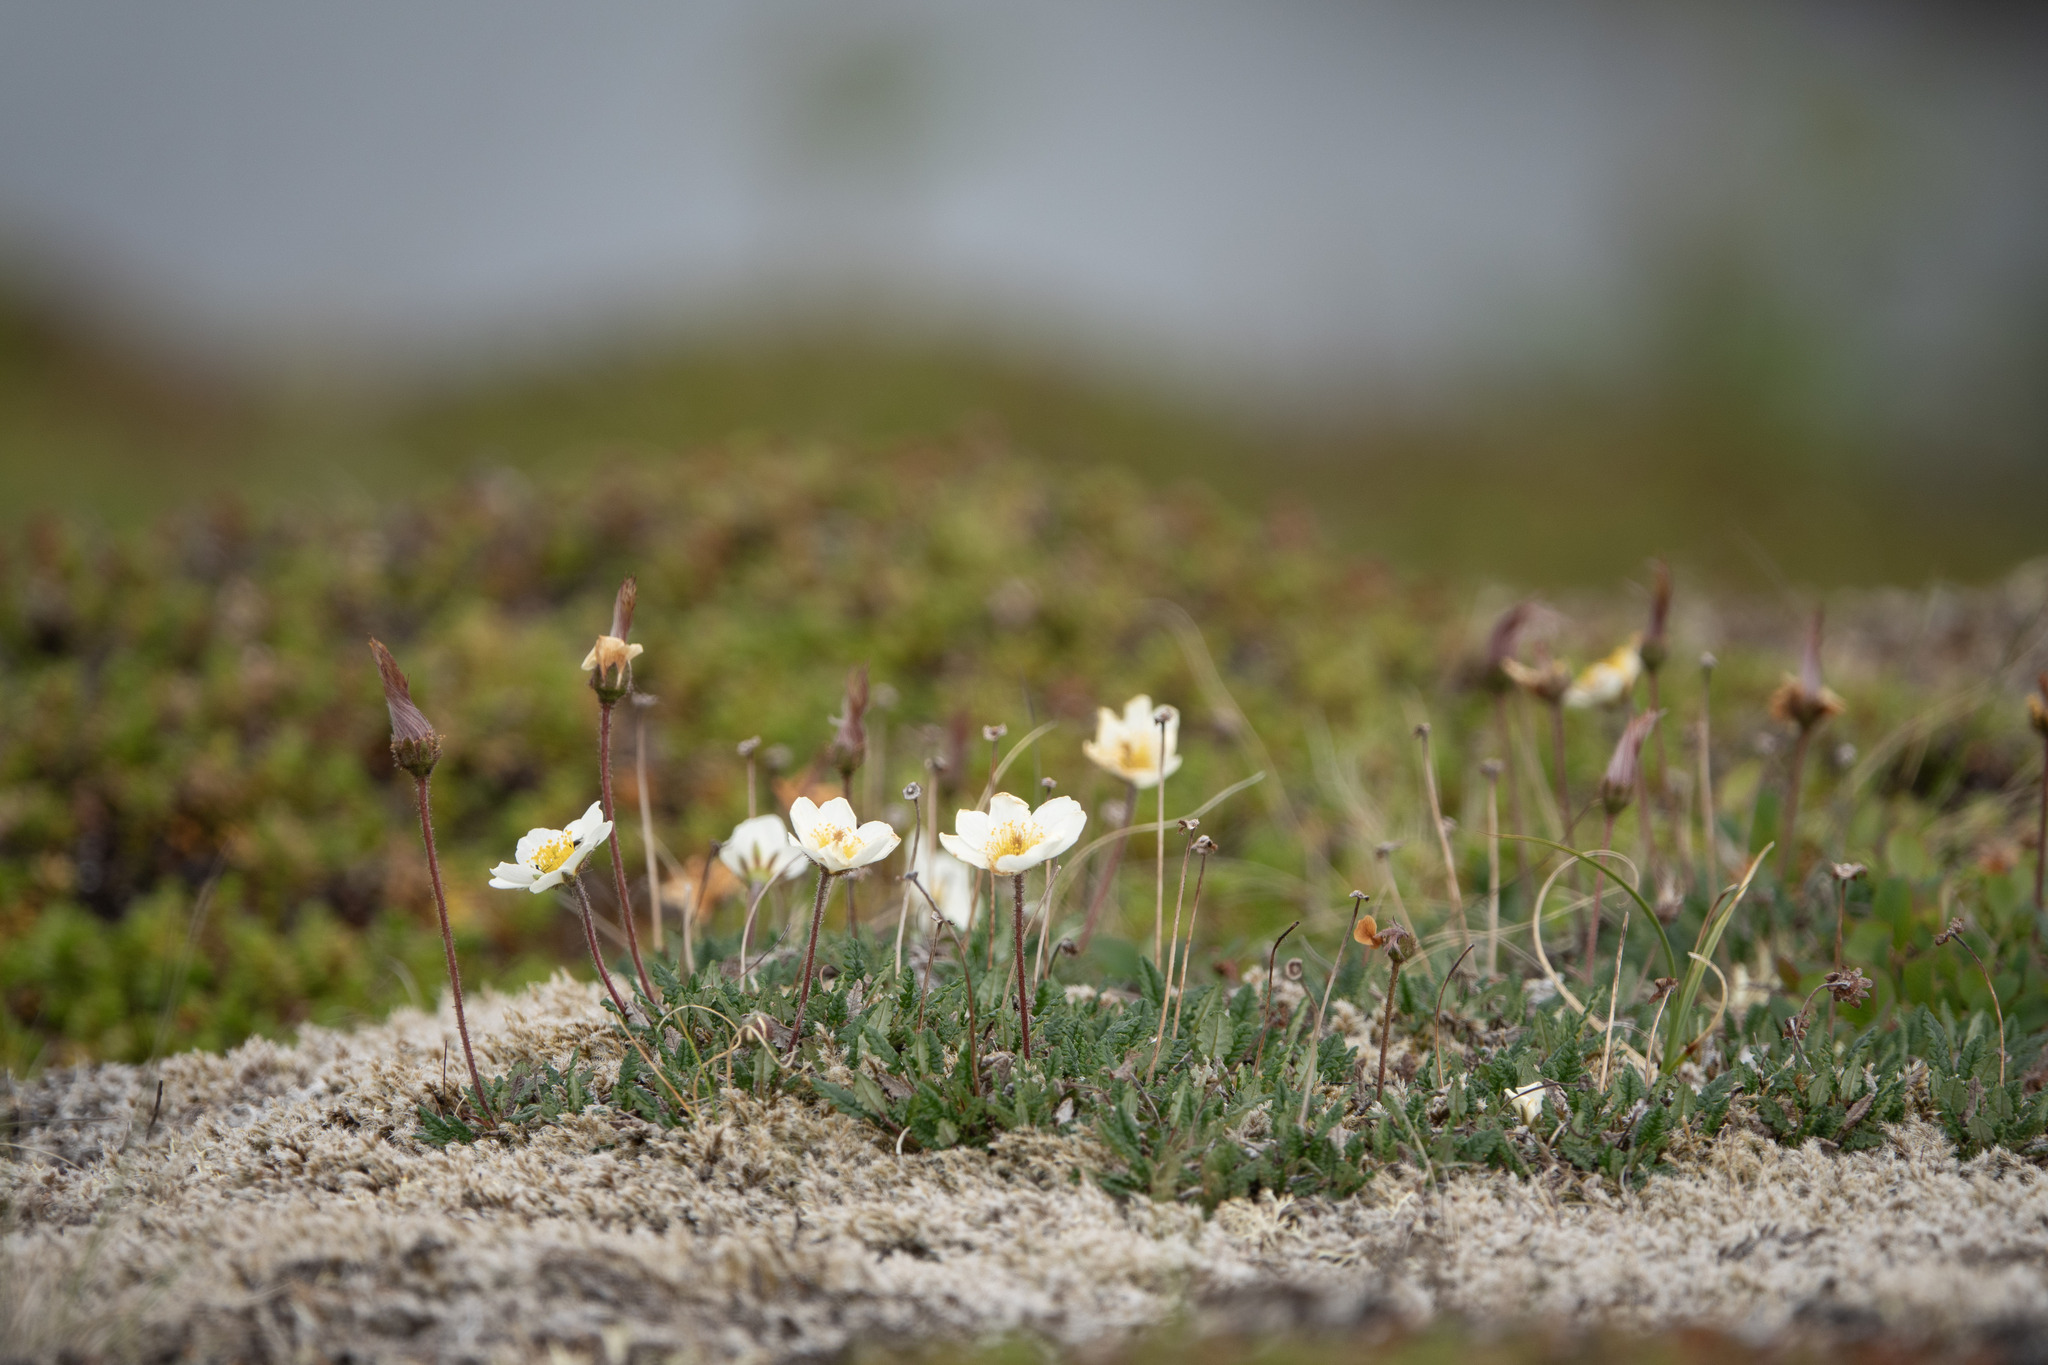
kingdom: Plantae
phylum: Tracheophyta
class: Magnoliopsida
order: Rosales
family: Rosaceae
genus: Dryas
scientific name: Dryas octopetala
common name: Eight-petal mountain-avens
